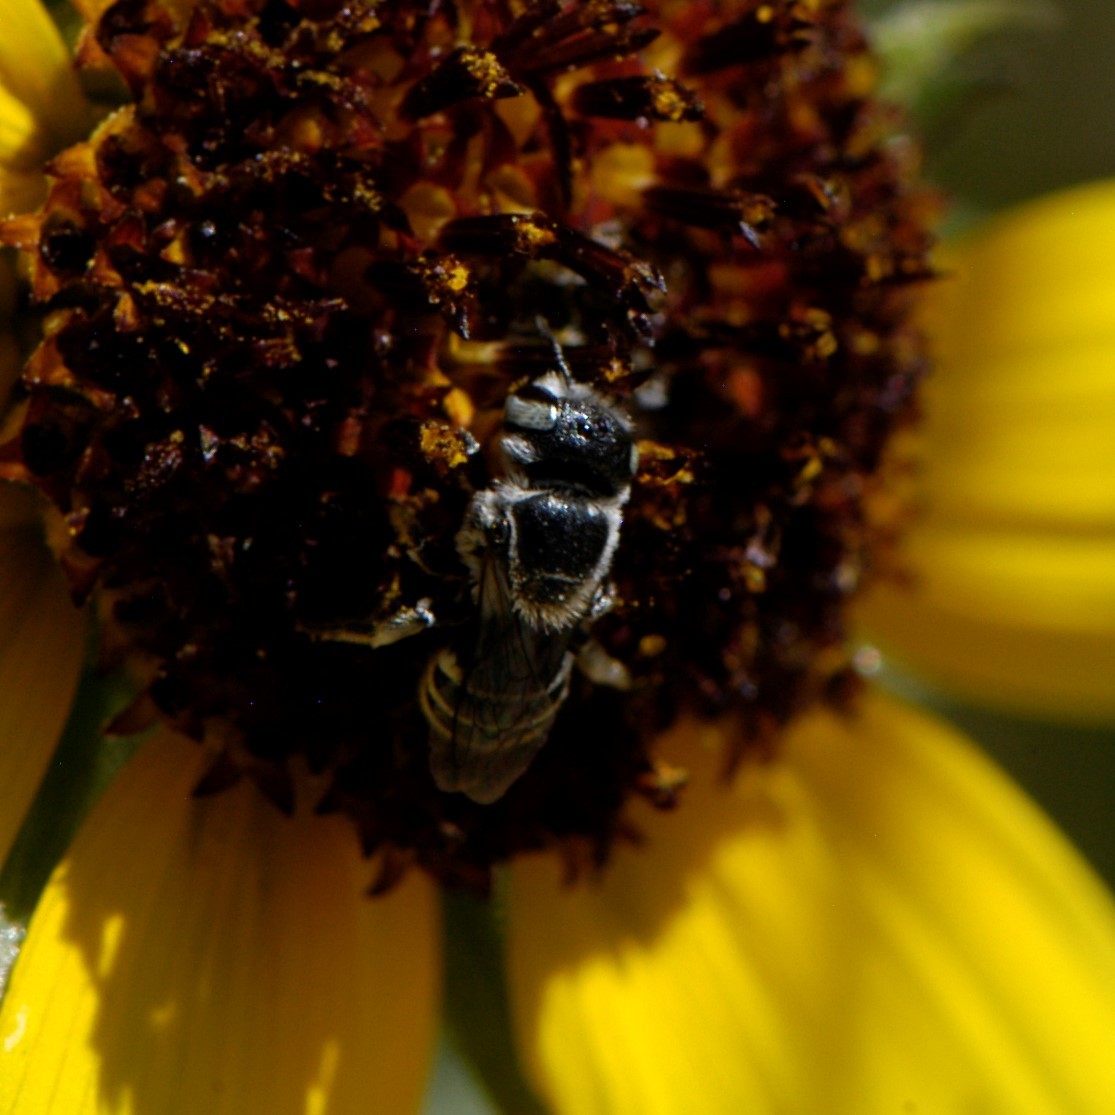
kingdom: Animalia
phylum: Arthropoda
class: Insecta
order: Hymenoptera
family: Megachilidae
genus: Ashmeadiella
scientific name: Ashmeadiella
